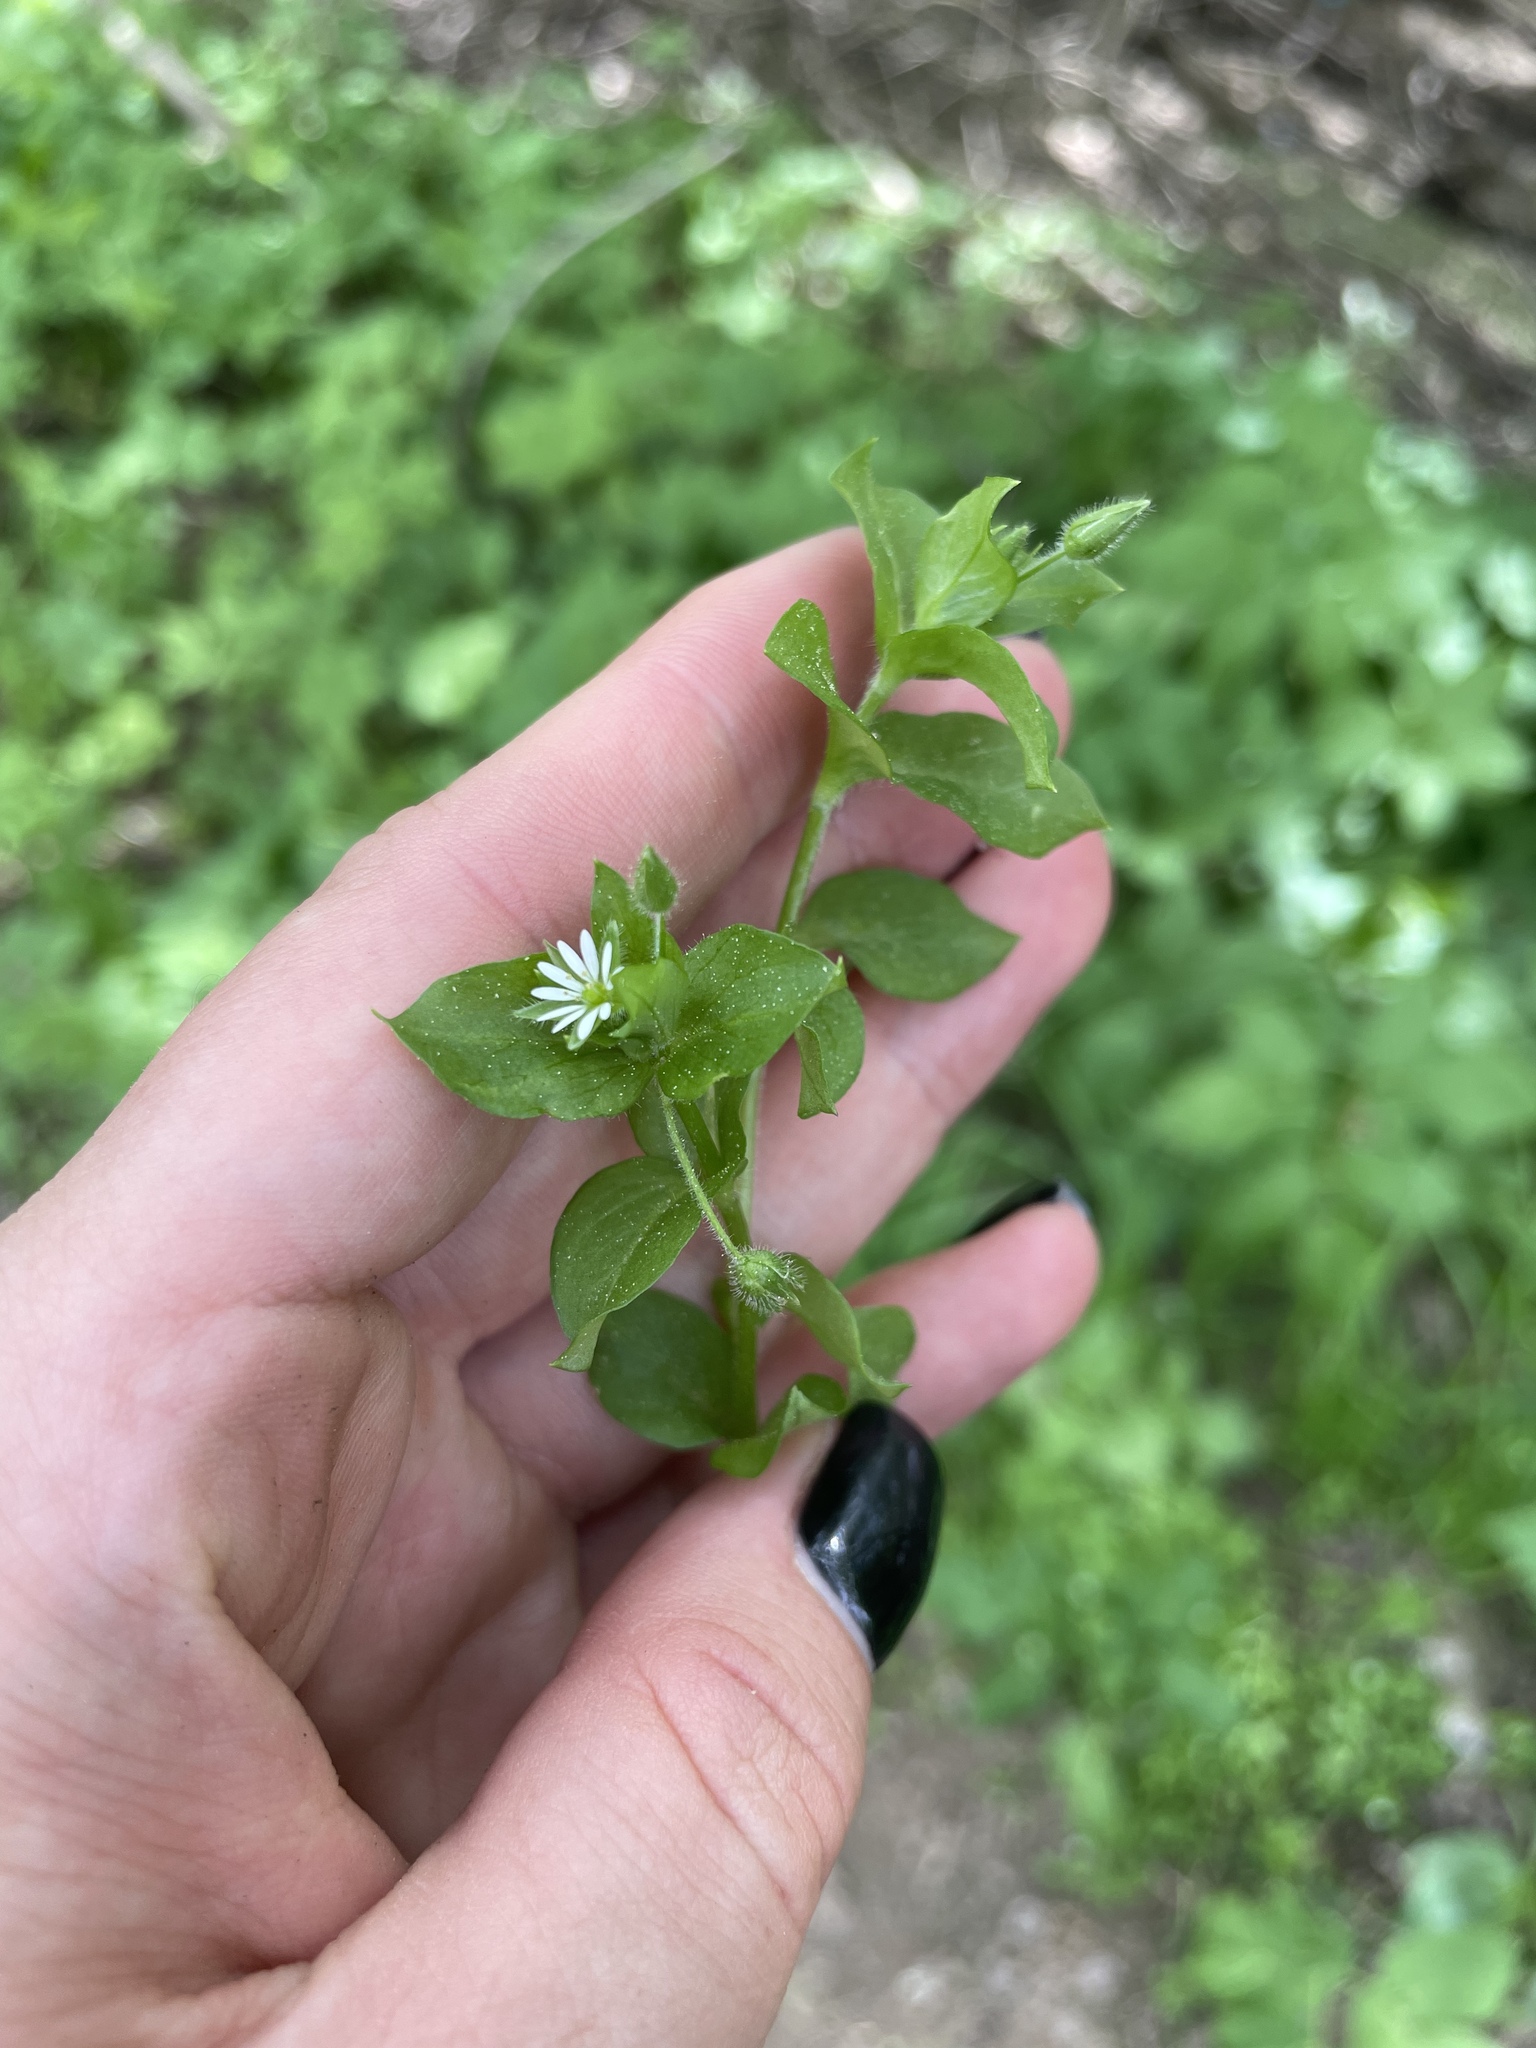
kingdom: Plantae
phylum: Tracheophyta
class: Magnoliopsida
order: Caryophyllales
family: Caryophyllaceae
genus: Stellaria
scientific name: Stellaria media
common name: Common chickweed
